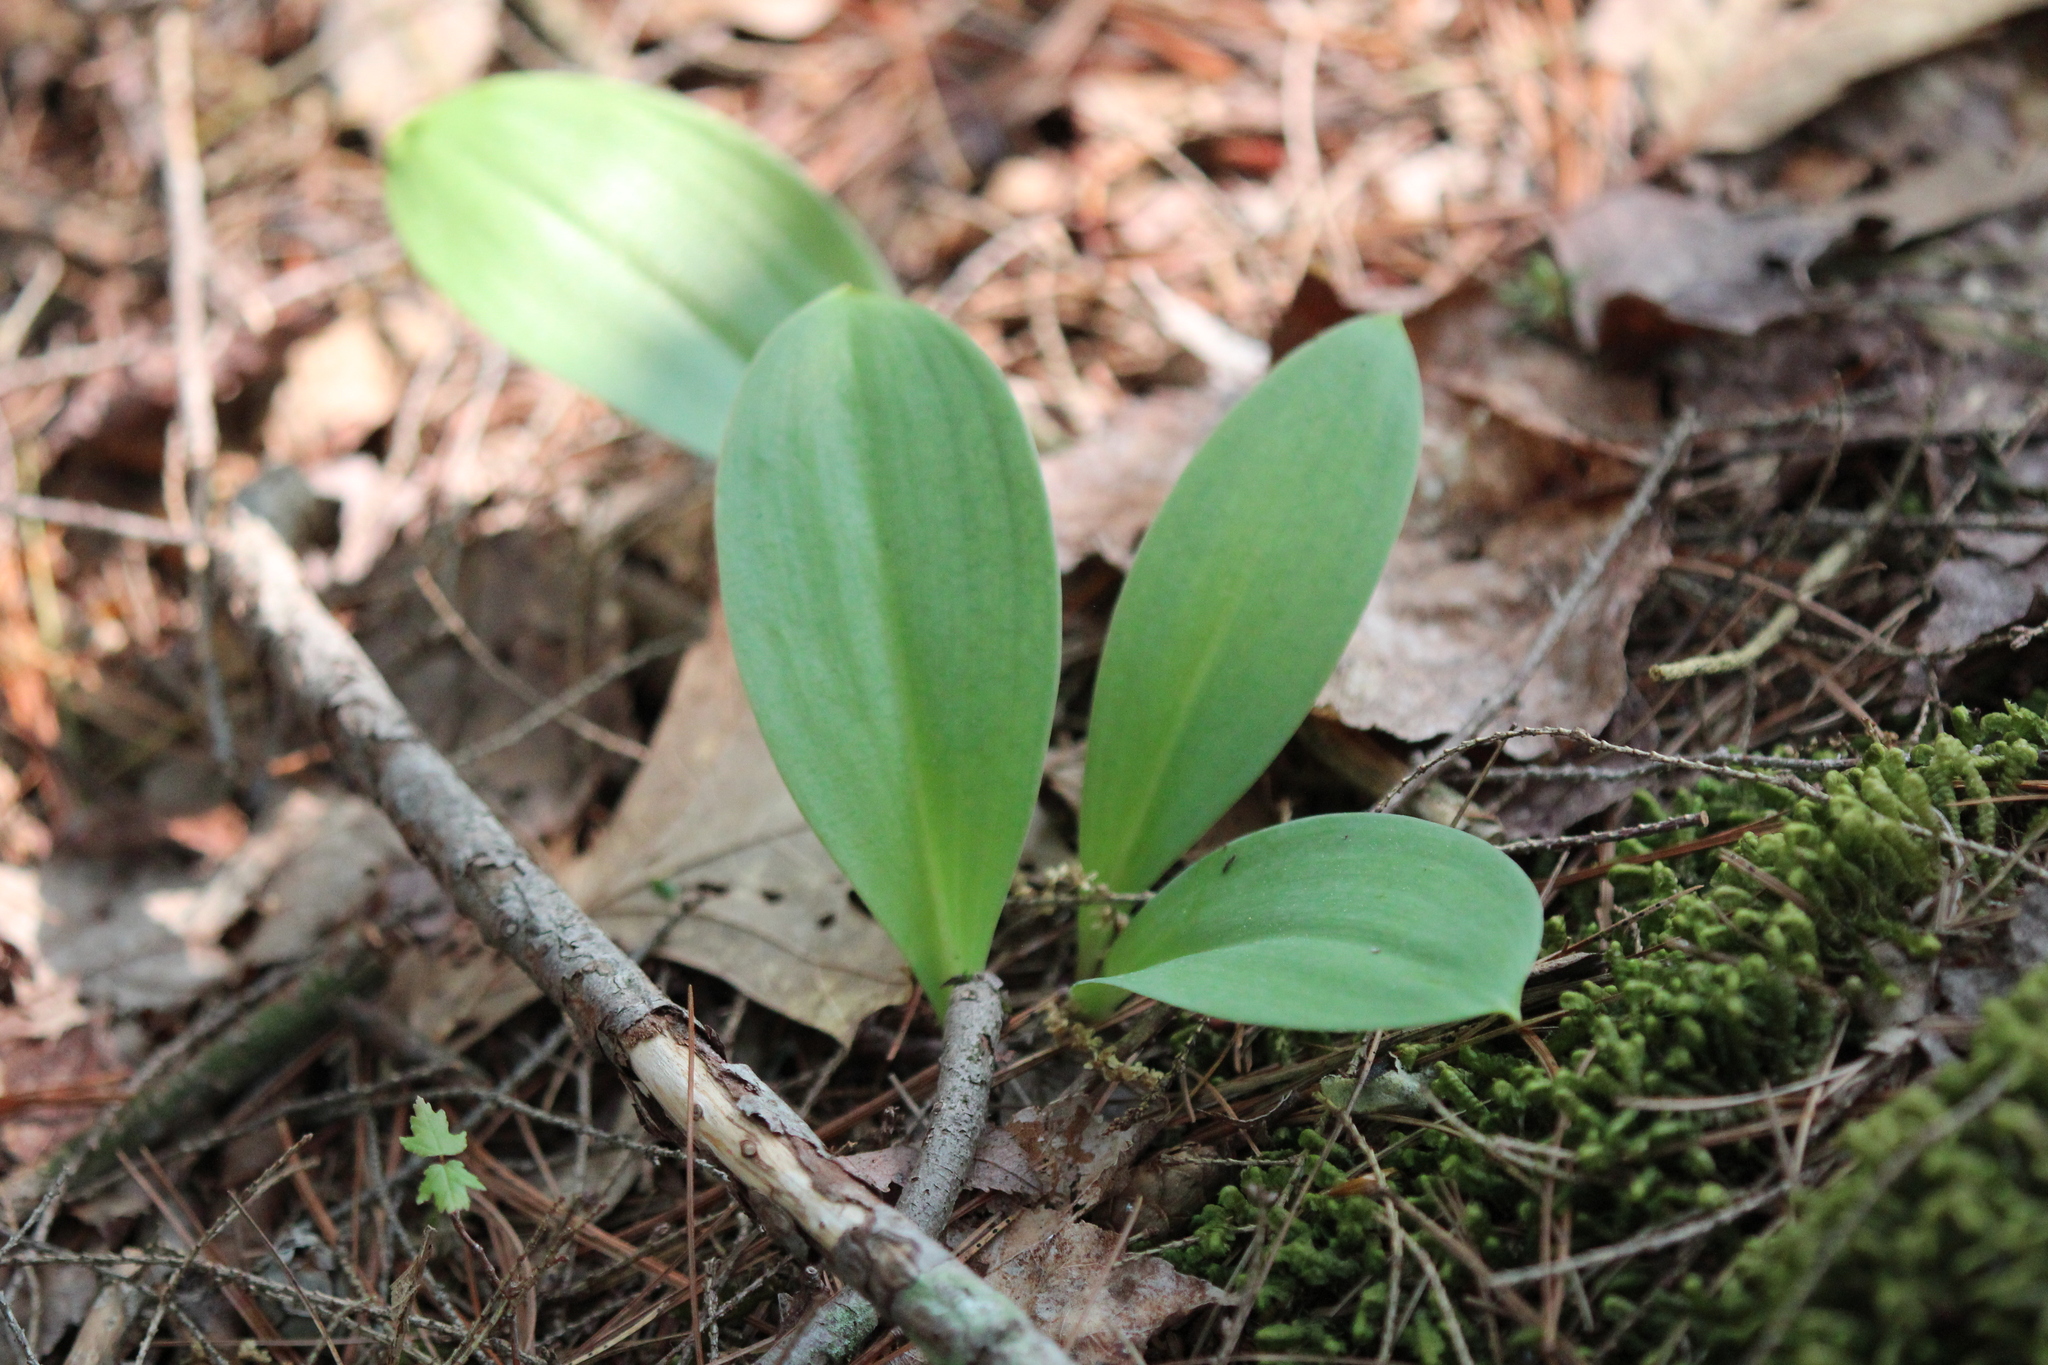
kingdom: Plantae
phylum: Tracheophyta
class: Liliopsida
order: Liliales
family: Liliaceae
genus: Clintonia
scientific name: Clintonia borealis
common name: Yellow clintonia
